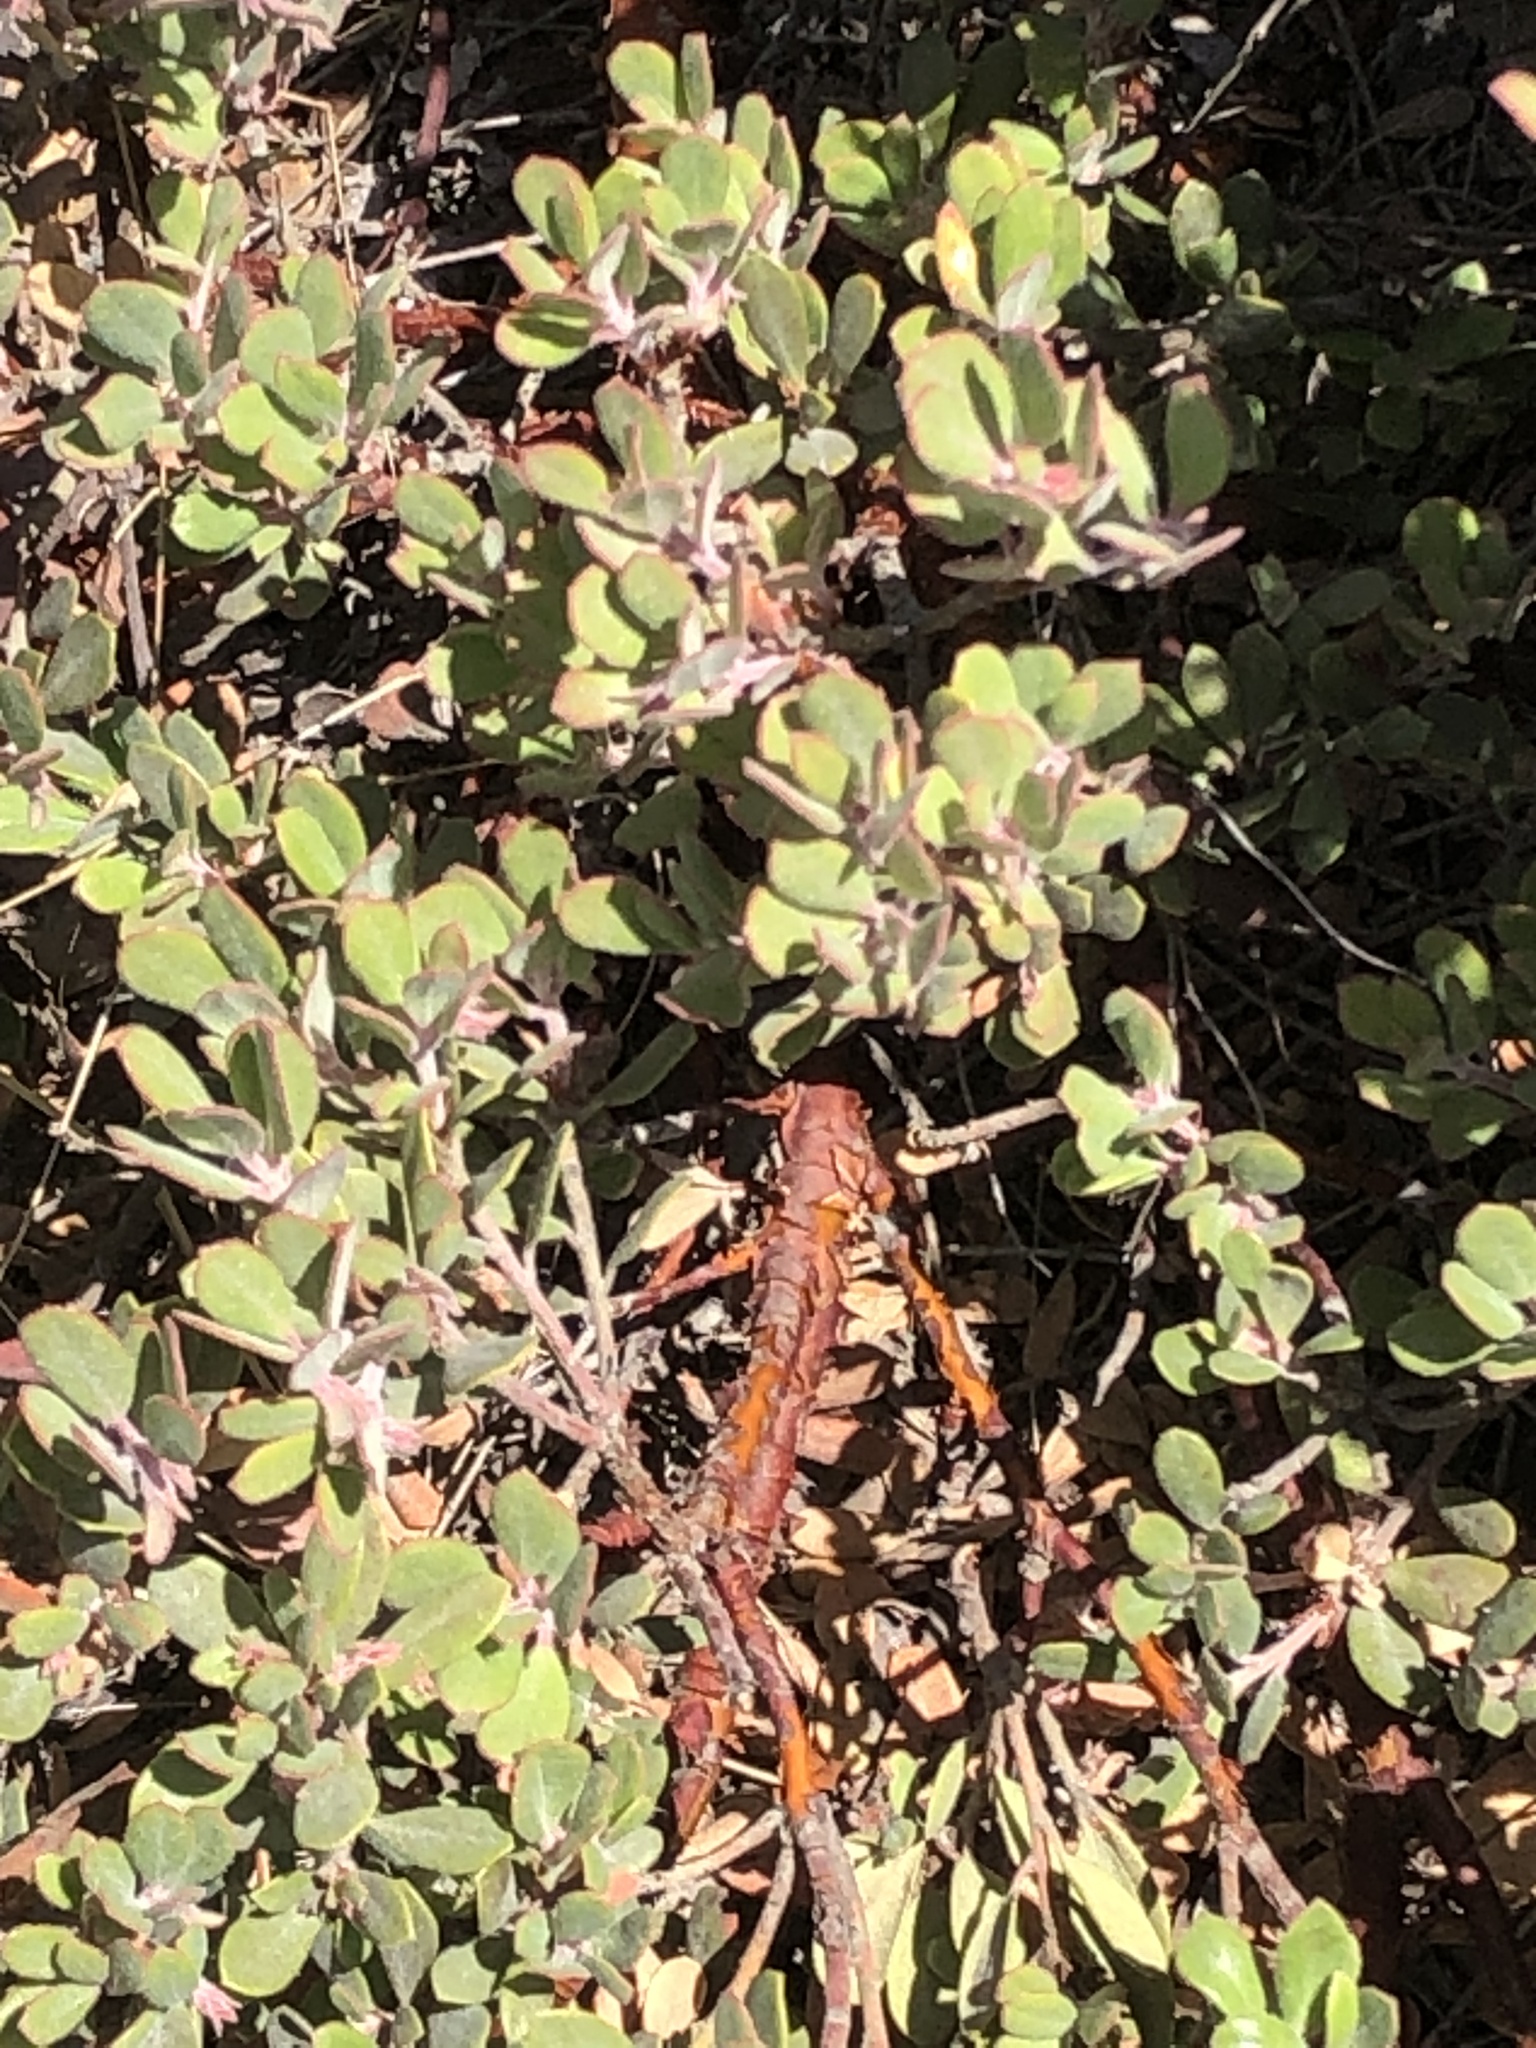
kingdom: Plantae
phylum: Tracheophyta
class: Magnoliopsida
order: Ericales
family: Ericaceae
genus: Arctostaphylos
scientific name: Arctostaphylos pumila
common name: Sandmat manzanita
